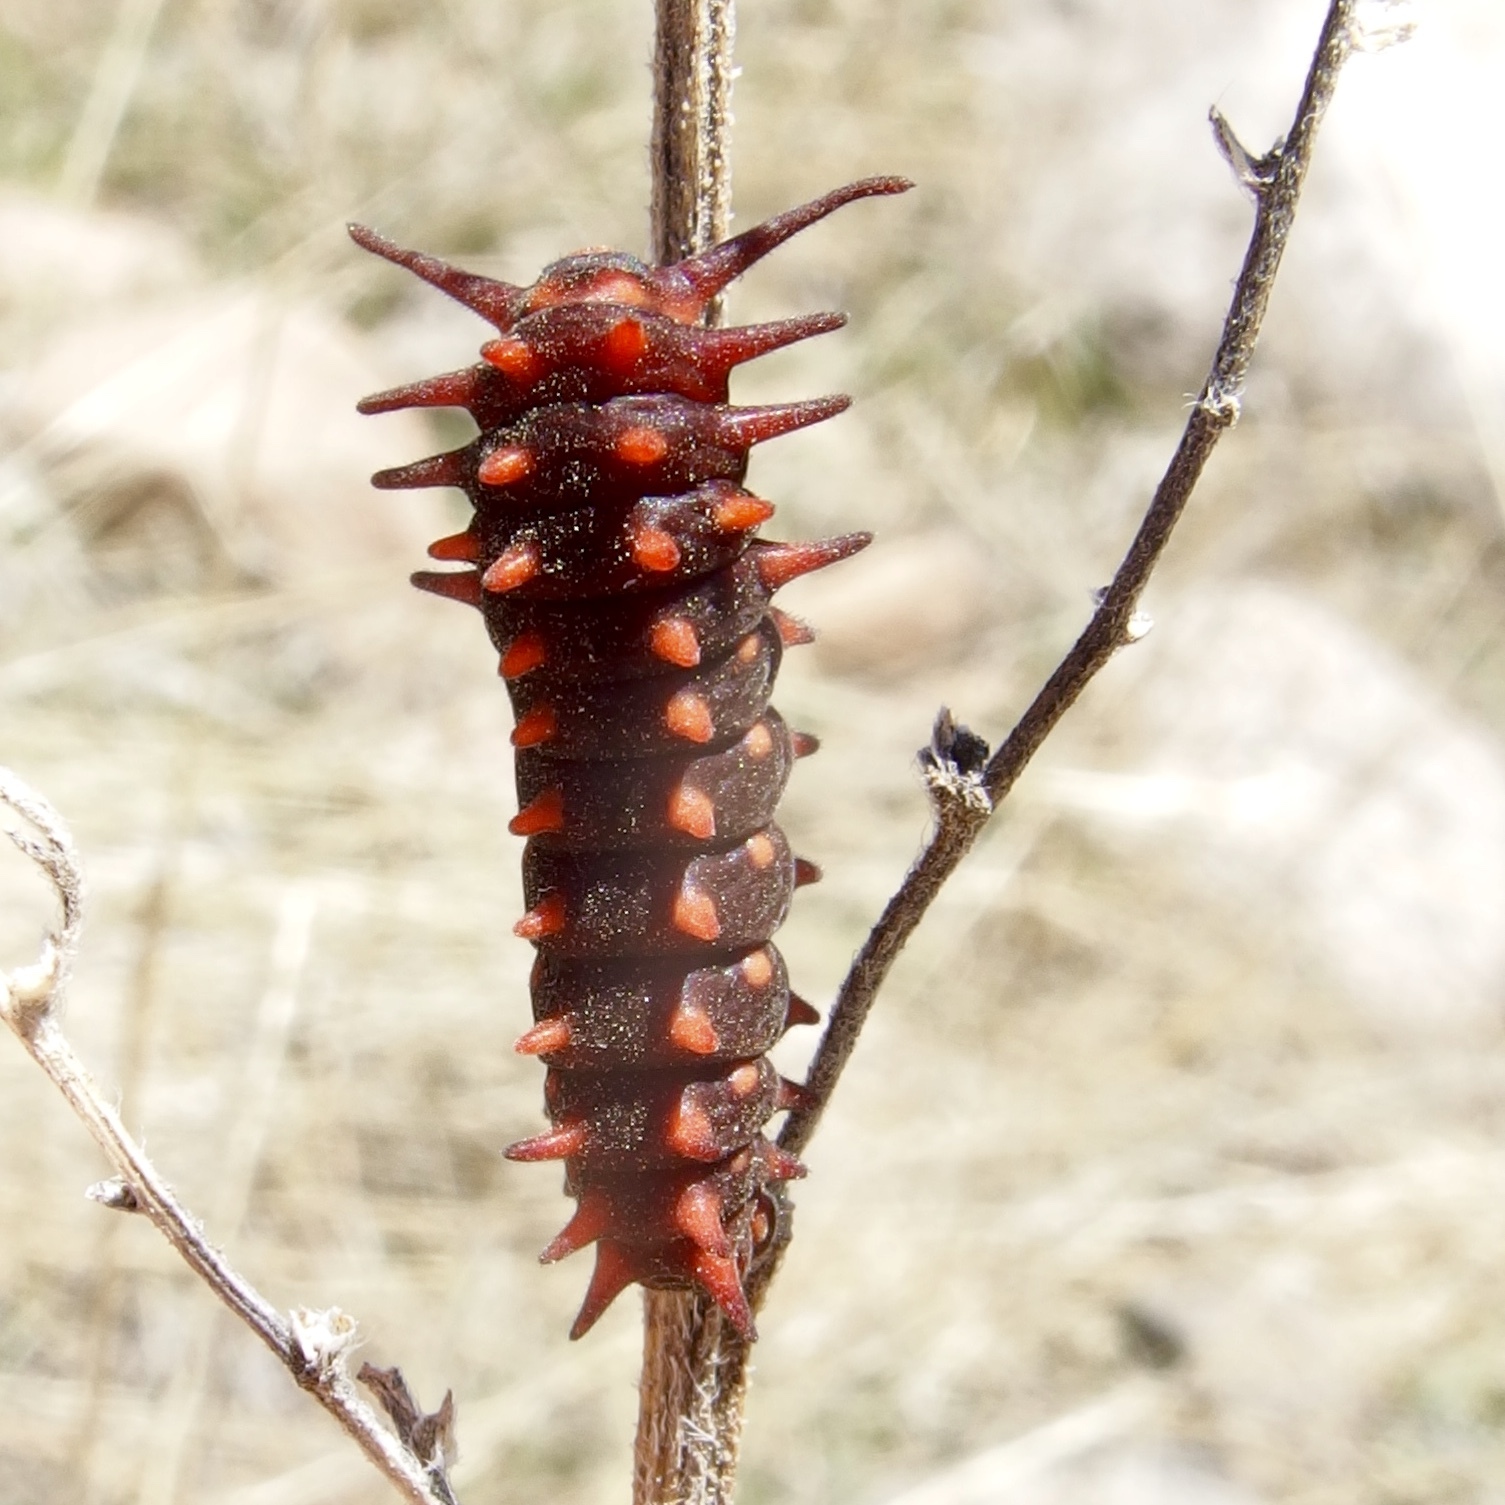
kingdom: Animalia
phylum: Arthropoda
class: Insecta
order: Lepidoptera
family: Papilionidae
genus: Battus
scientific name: Battus philenor
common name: Pipevine swallowtail
